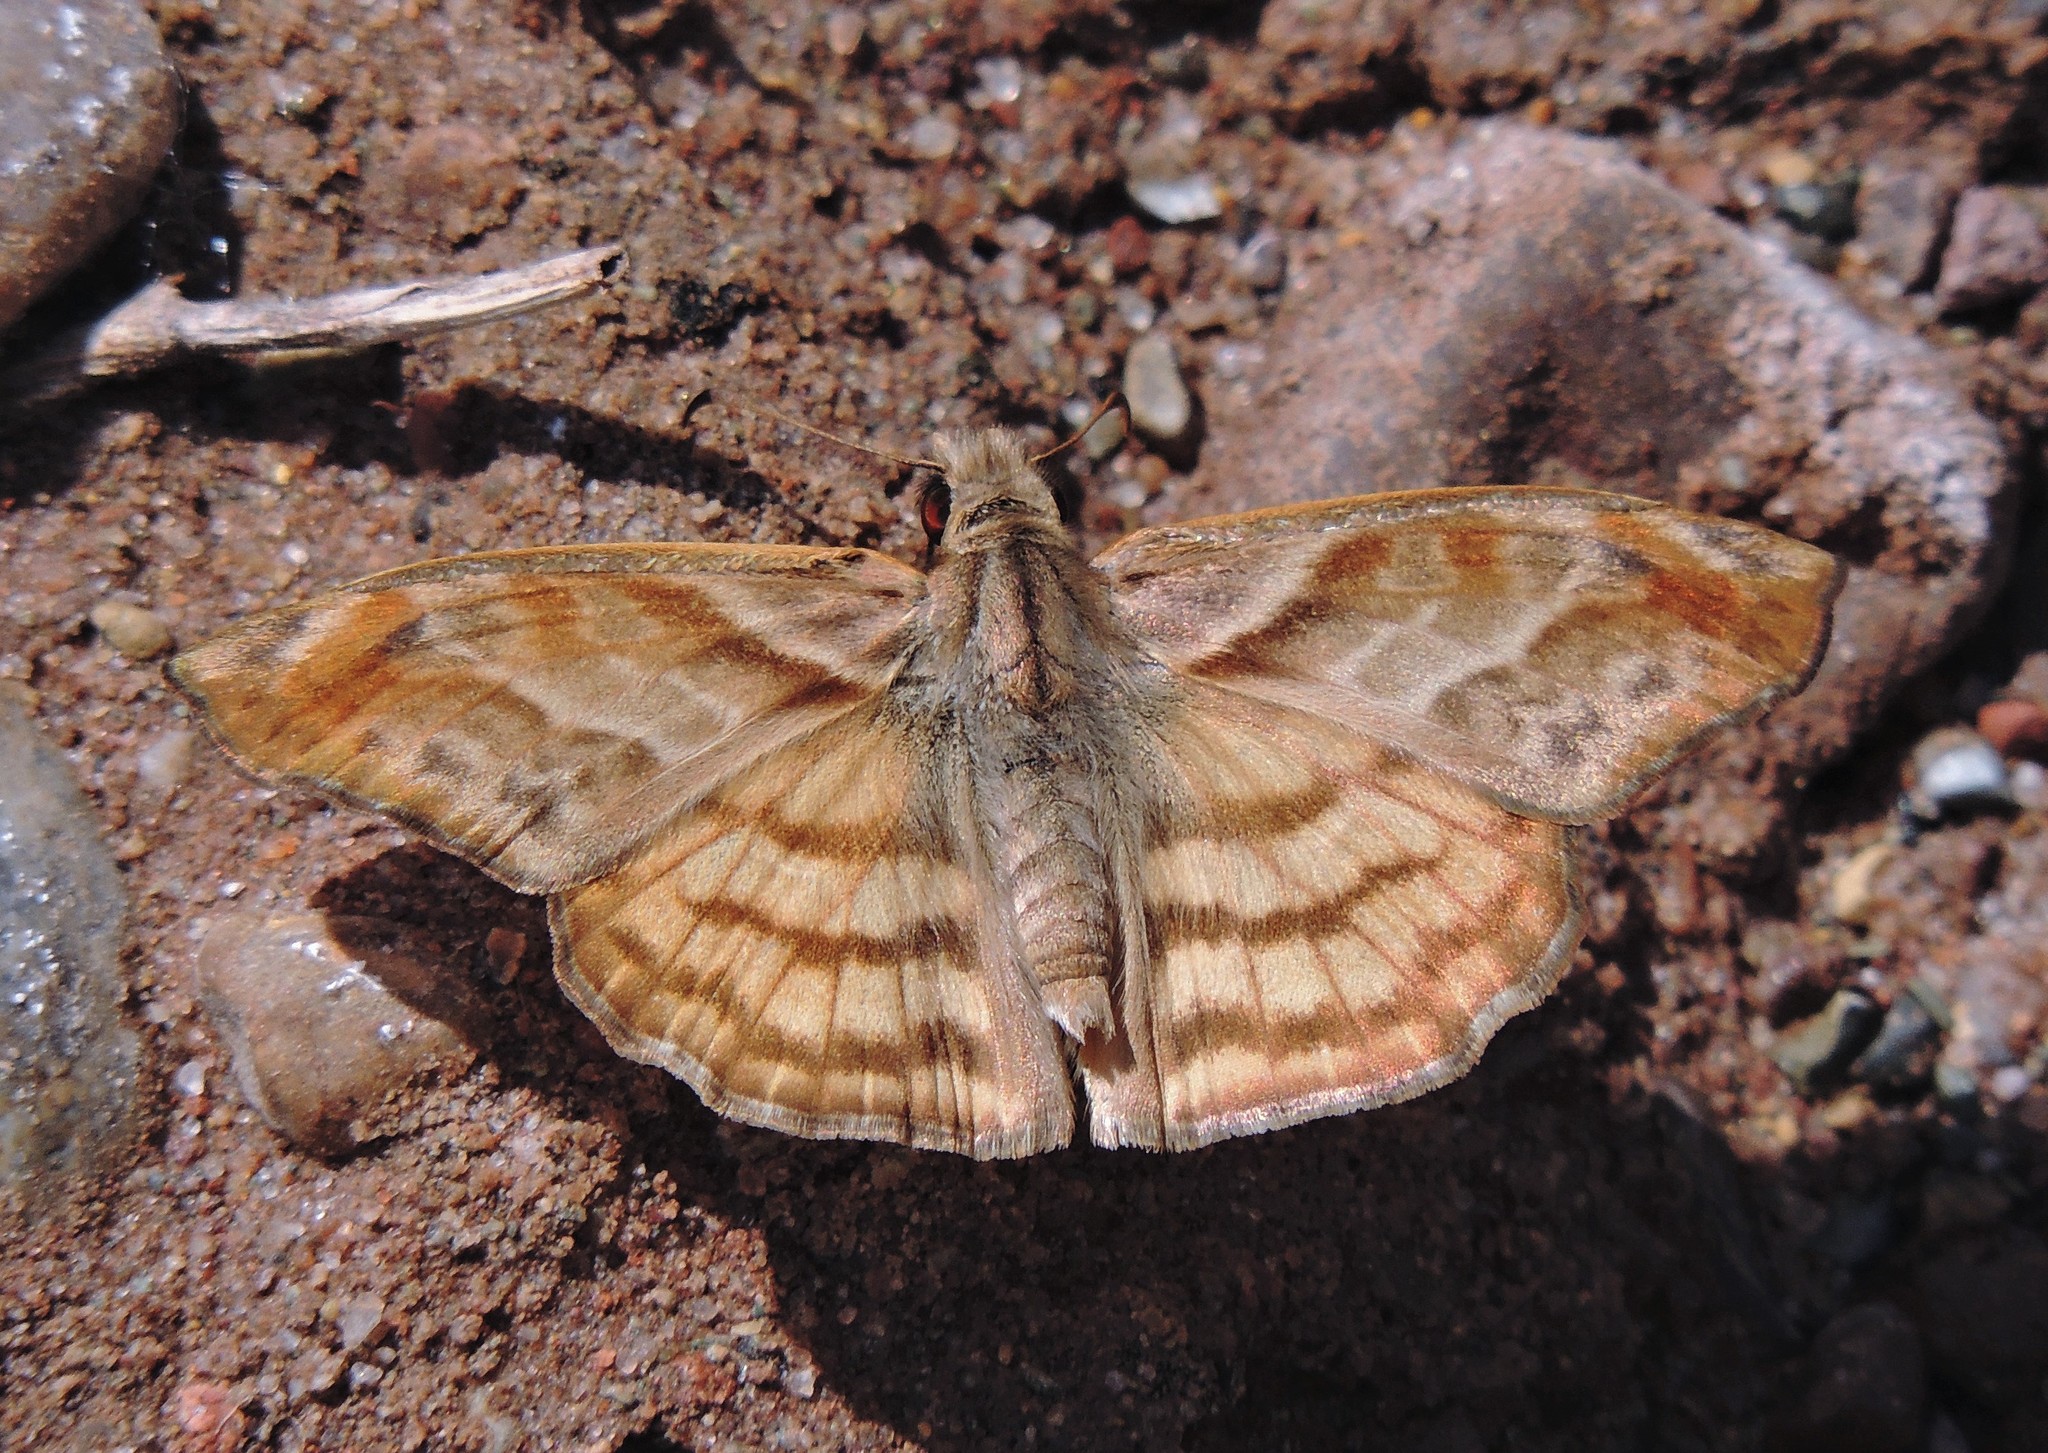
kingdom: Animalia
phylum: Arthropoda
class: Insecta
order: Lepidoptera
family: Hesperiidae
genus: Timochares
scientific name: Timochares trifasciata
